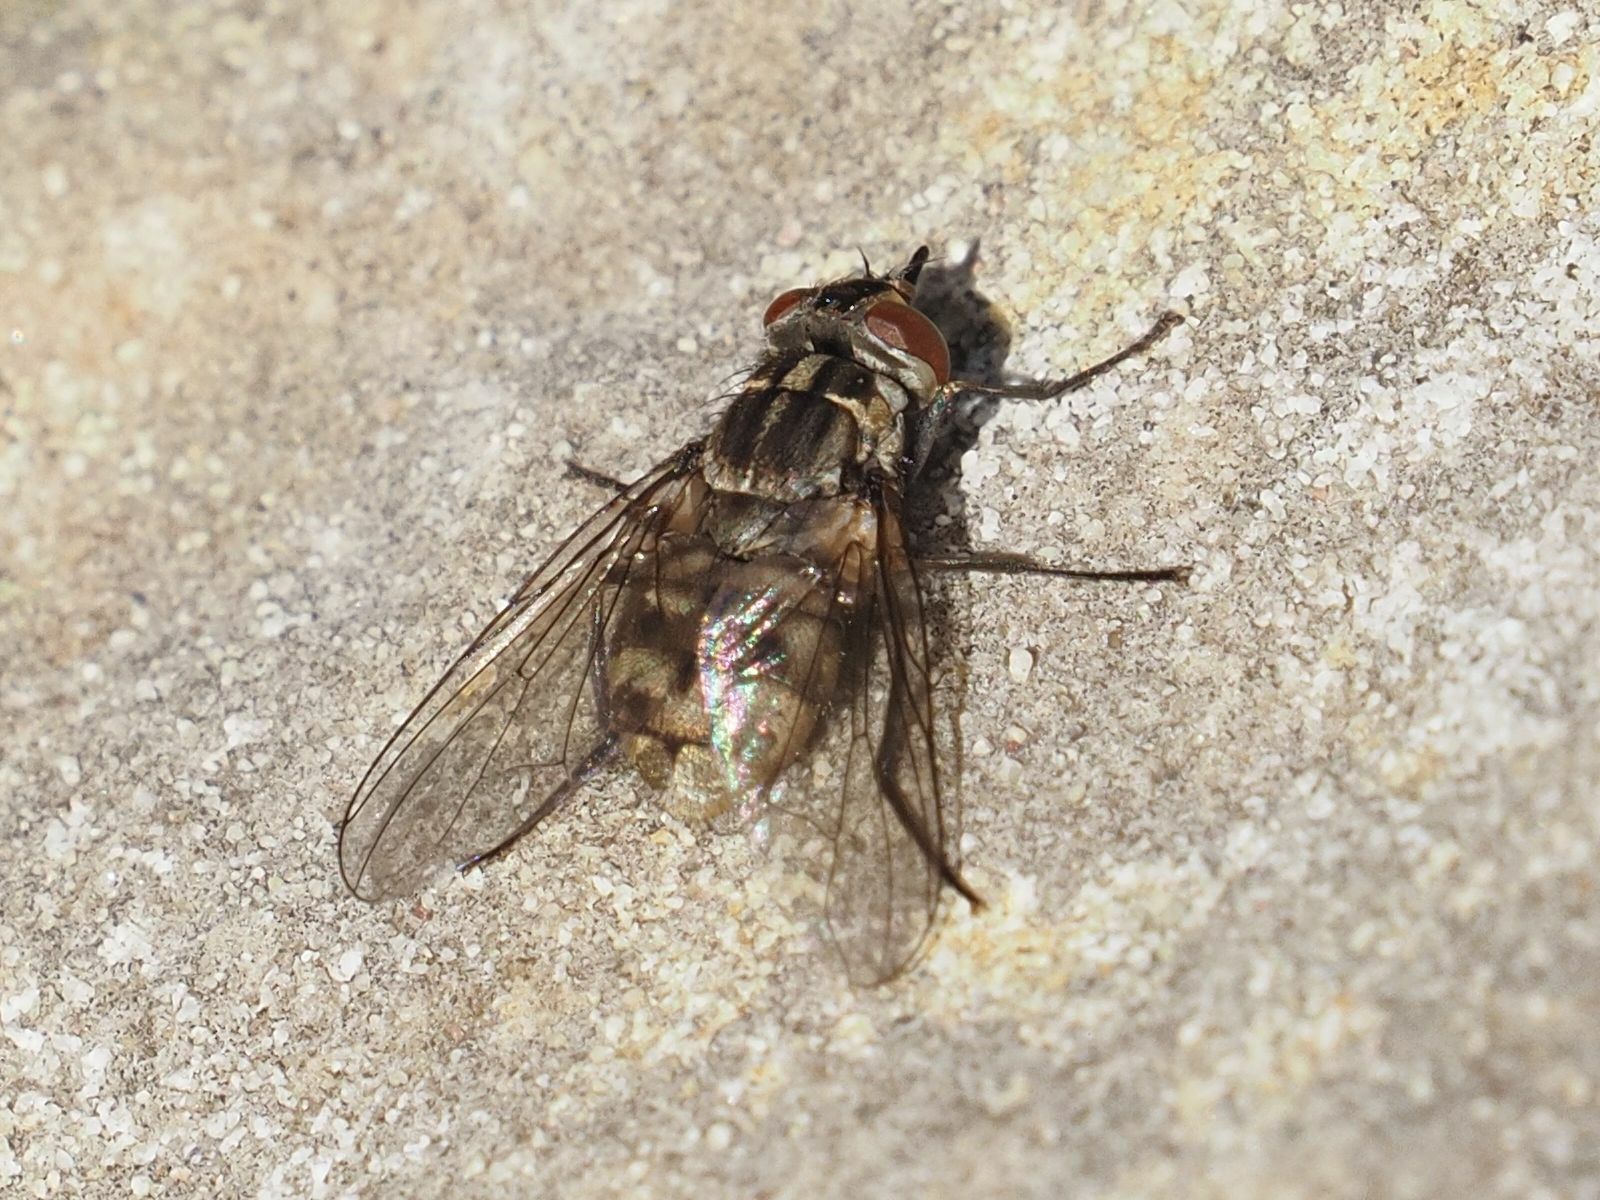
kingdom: Animalia
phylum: Arthropoda
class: Insecta
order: Diptera
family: Muscidae
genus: Stomoxys
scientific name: Stomoxys calcitrans
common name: Stable fly
